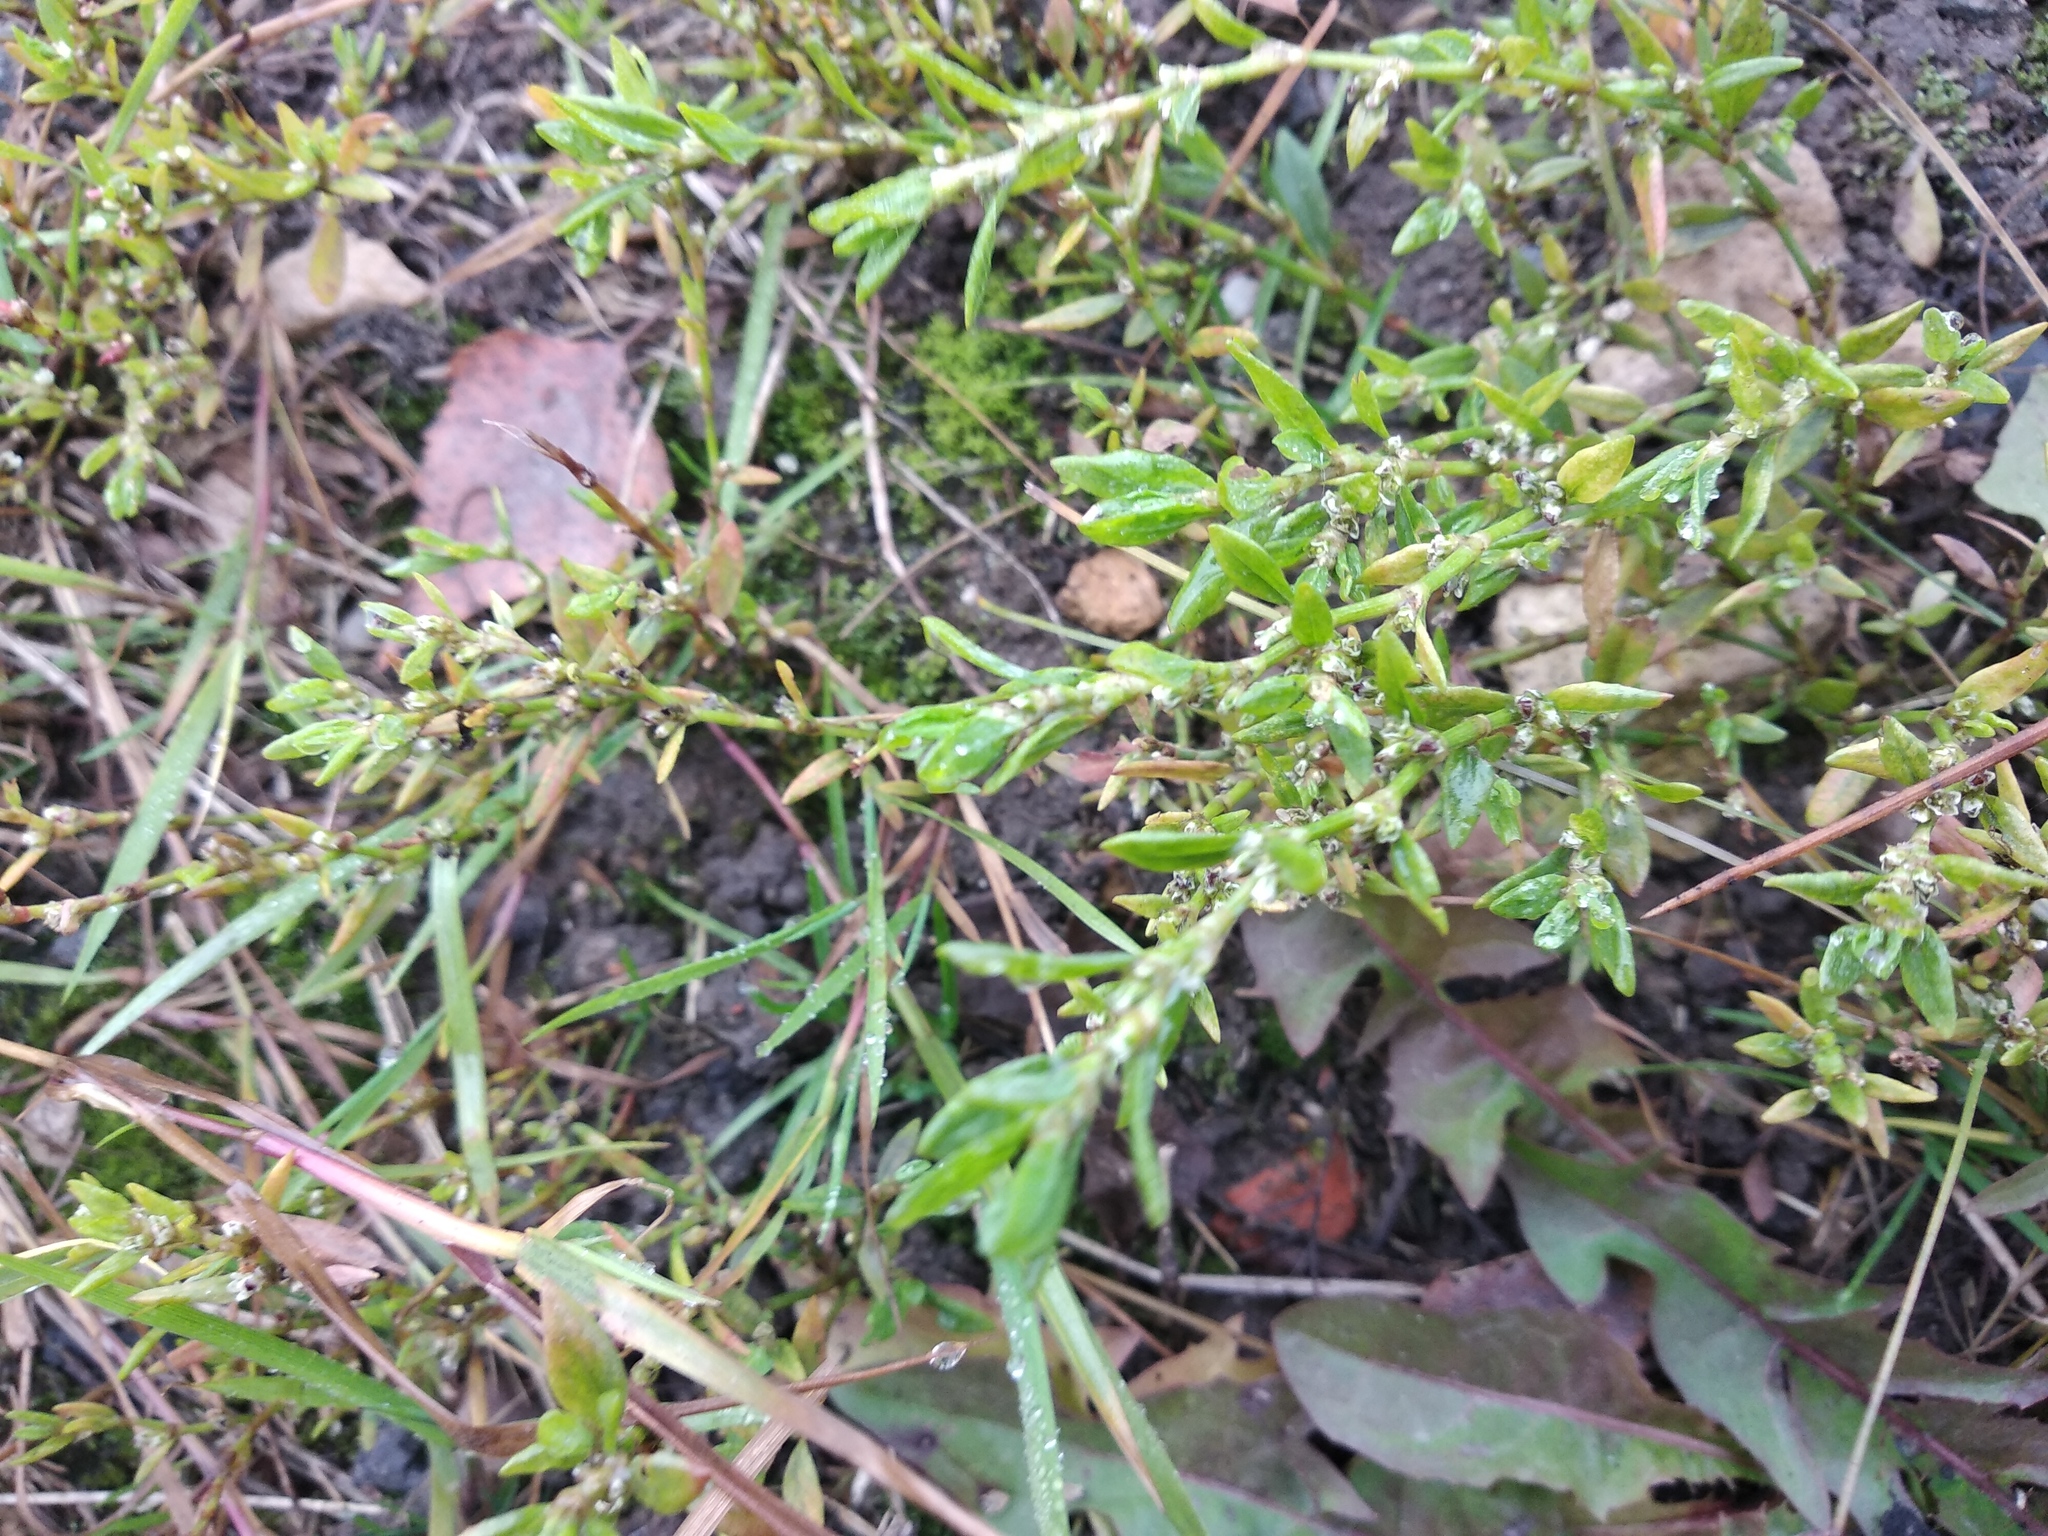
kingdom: Plantae
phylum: Tracheophyta
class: Magnoliopsida
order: Caryophyllales
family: Polygonaceae
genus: Polygonum
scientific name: Polygonum
